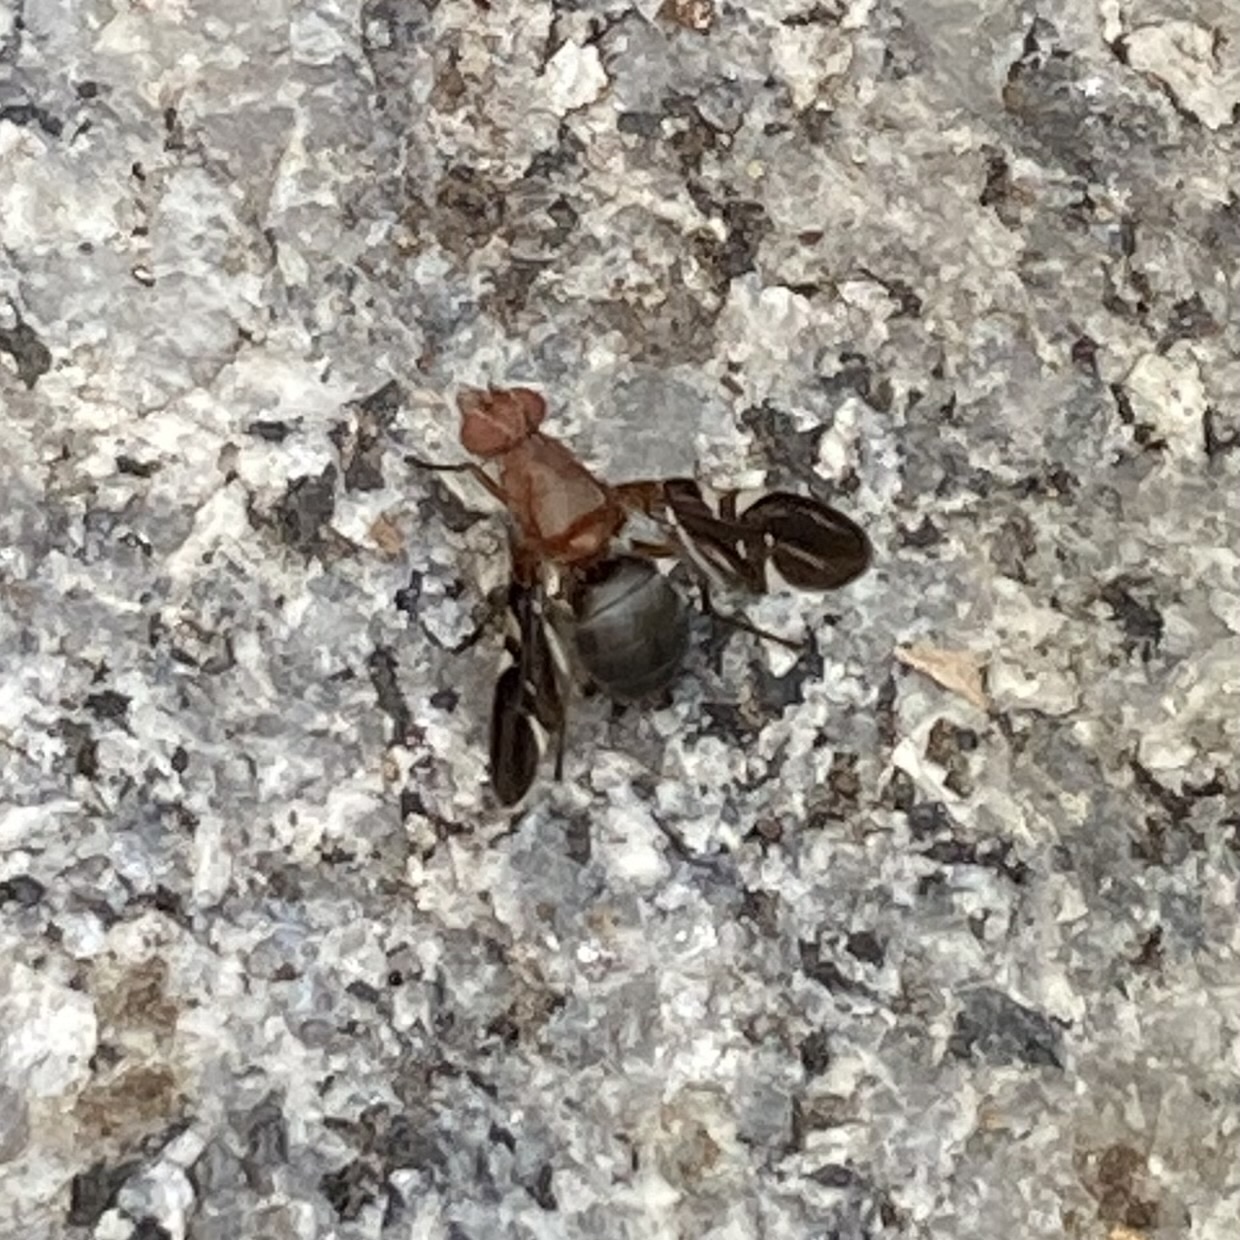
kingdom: Animalia
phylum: Arthropoda
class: Insecta
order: Diptera
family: Ulidiidae
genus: Delphinia
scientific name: Delphinia picta
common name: Common picture-winged fly
